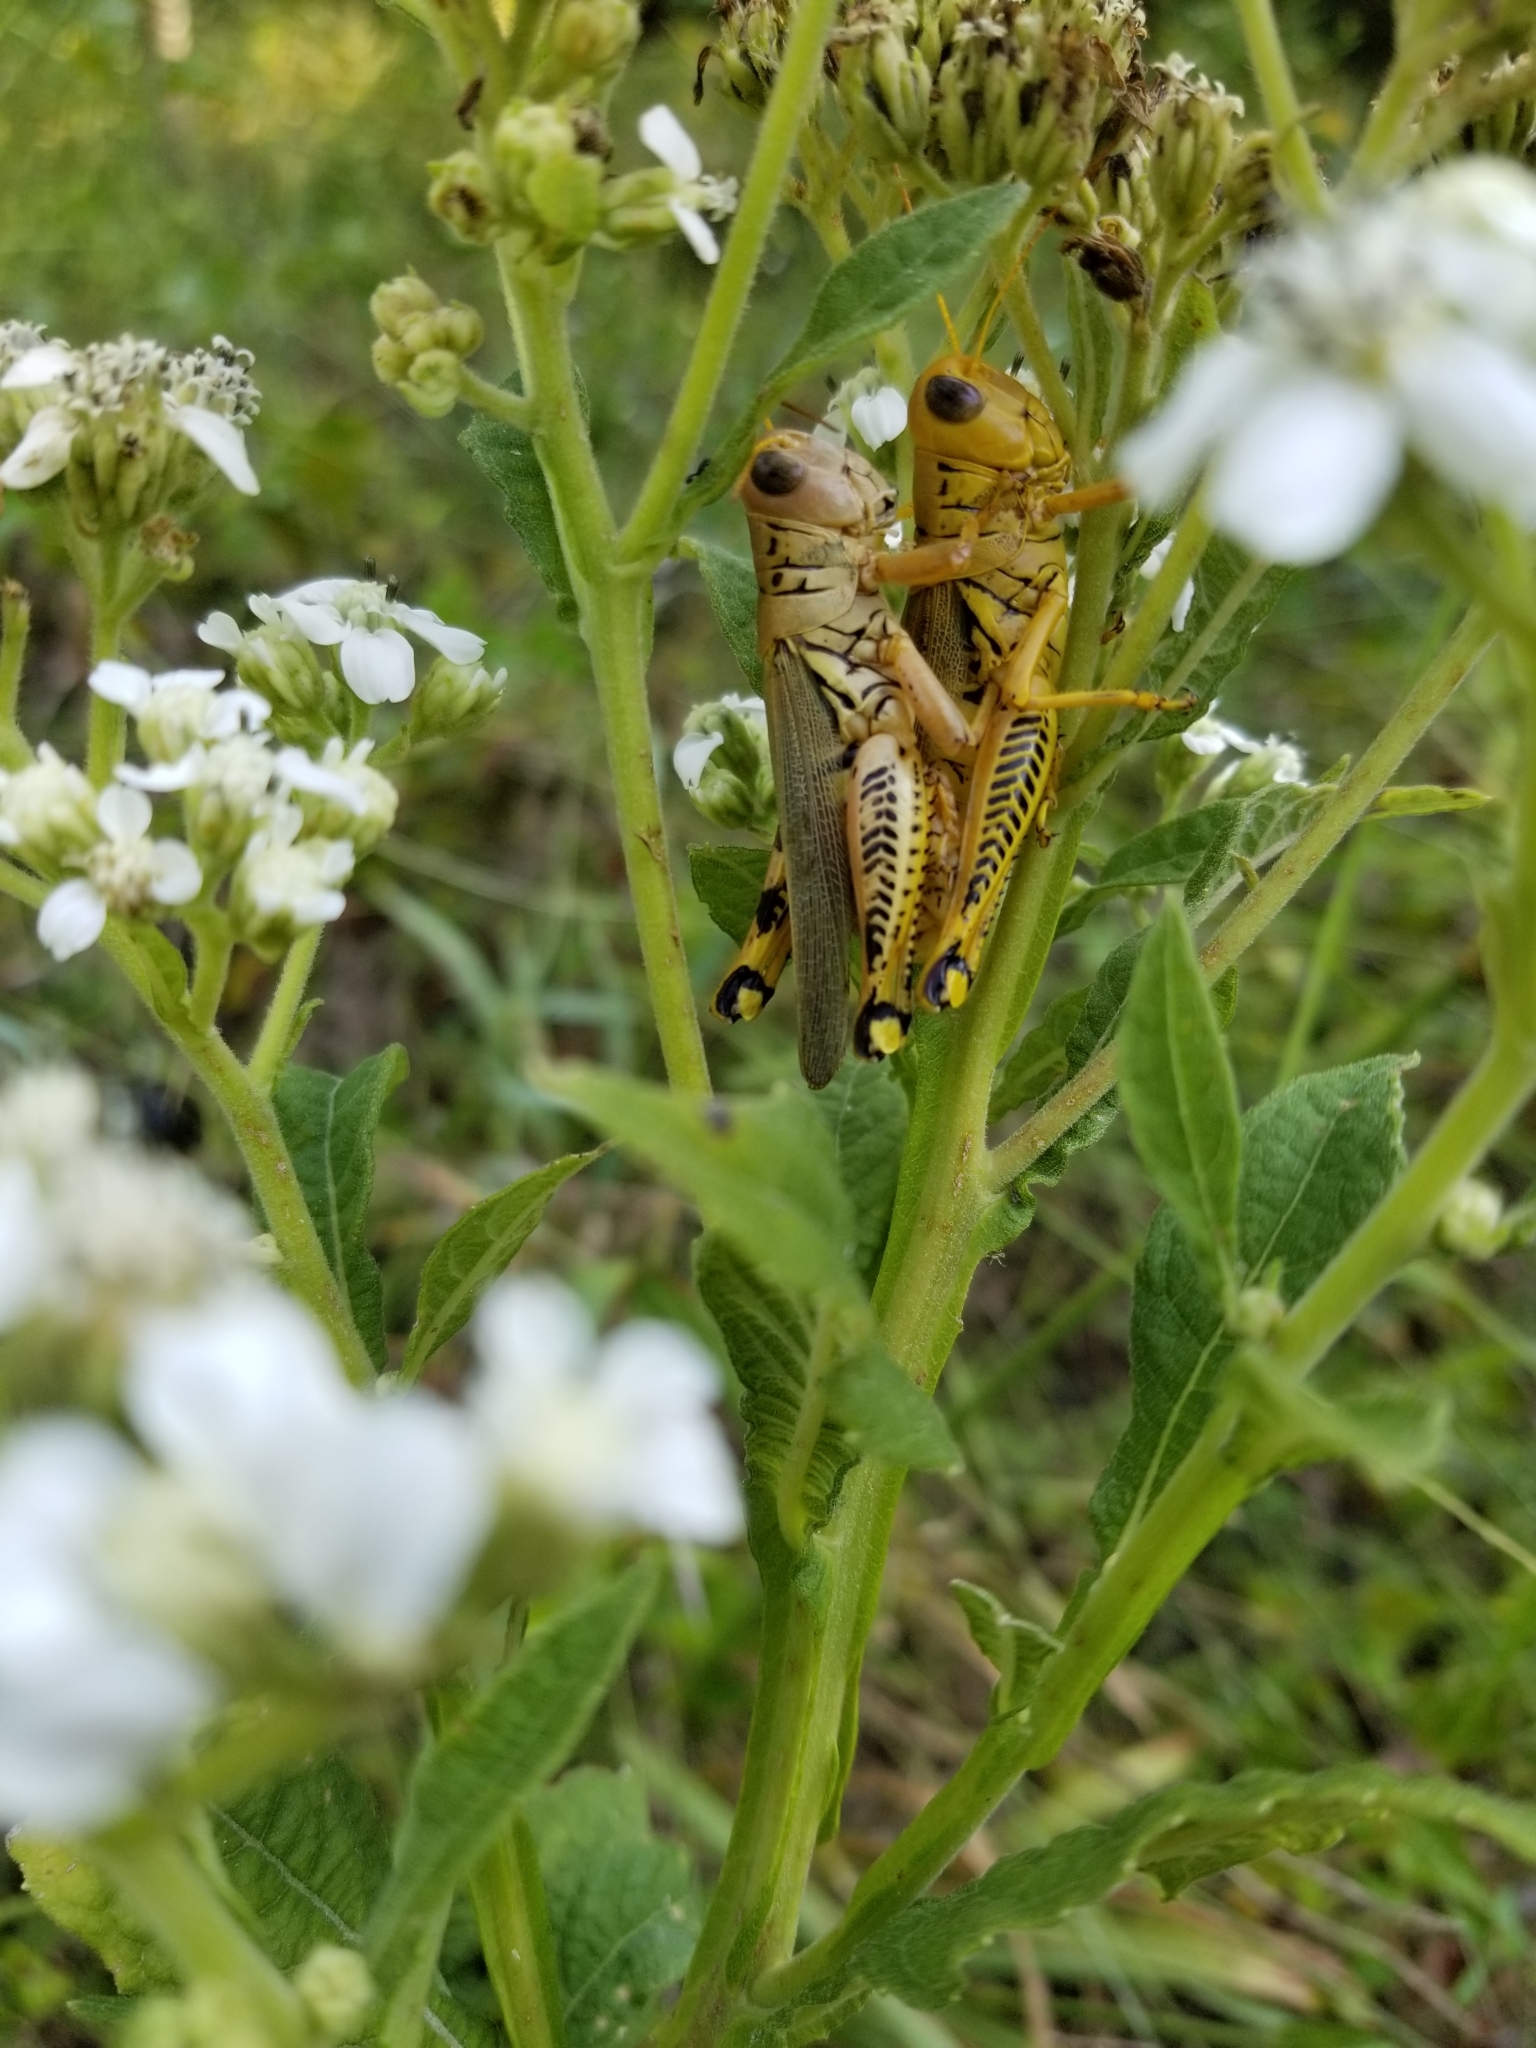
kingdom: Animalia
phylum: Arthropoda
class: Insecta
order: Orthoptera
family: Acrididae
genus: Melanoplus
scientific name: Melanoplus differentialis
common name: Differential grasshopper
